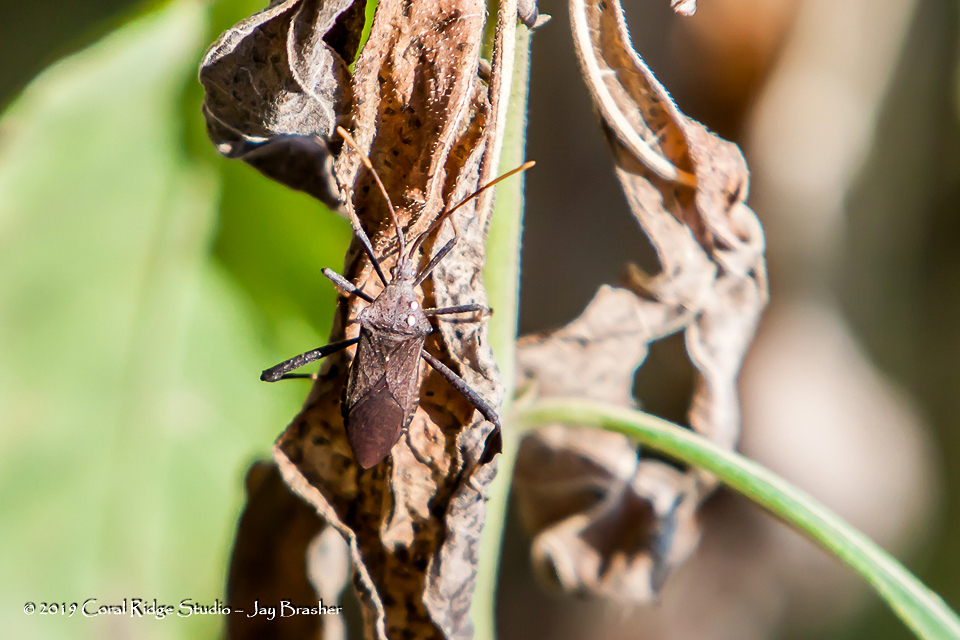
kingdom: Animalia
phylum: Arthropoda
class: Insecta
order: Hemiptera
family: Coreidae
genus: Acanthocephala
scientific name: Acanthocephala terminalis
